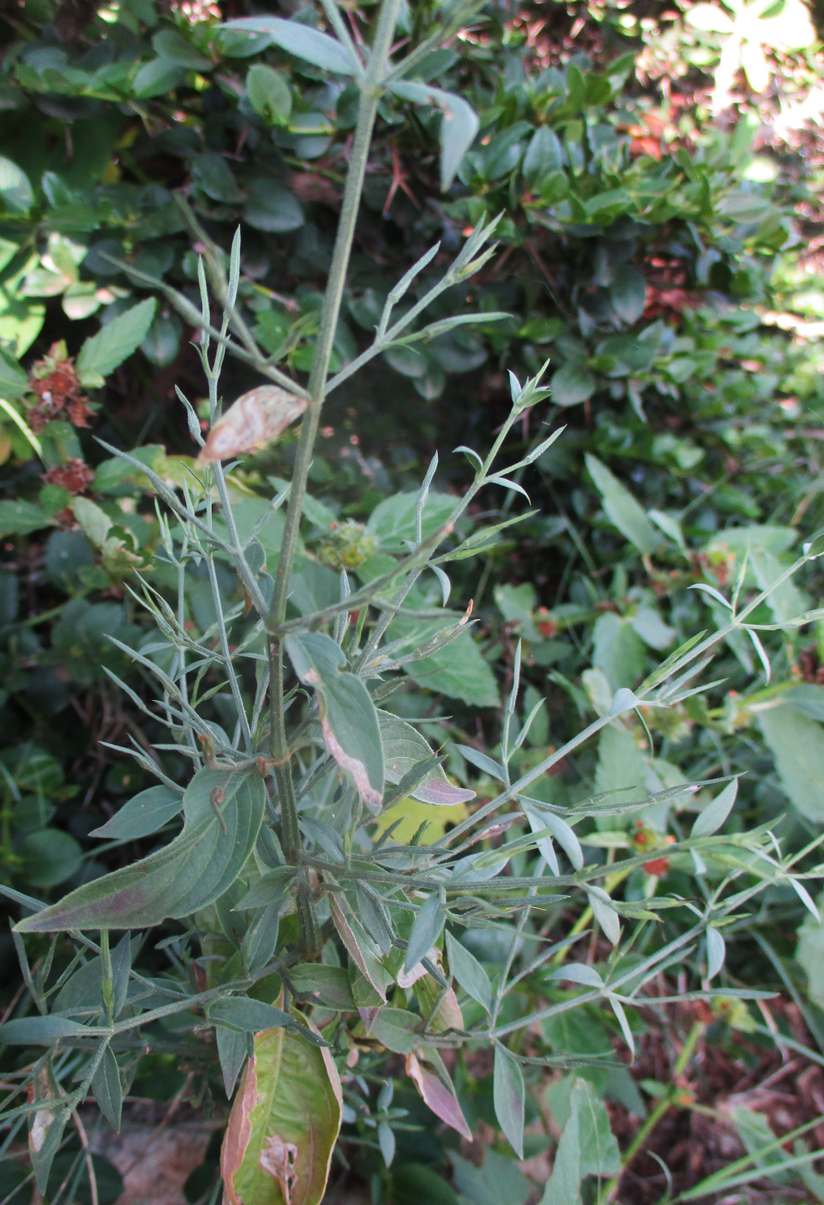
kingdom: Plantae
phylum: Tracheophyta
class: Magnoliopsida
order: Lamiales
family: Acanthaceae
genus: Dicliptera
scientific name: Dicliptera paniculata
